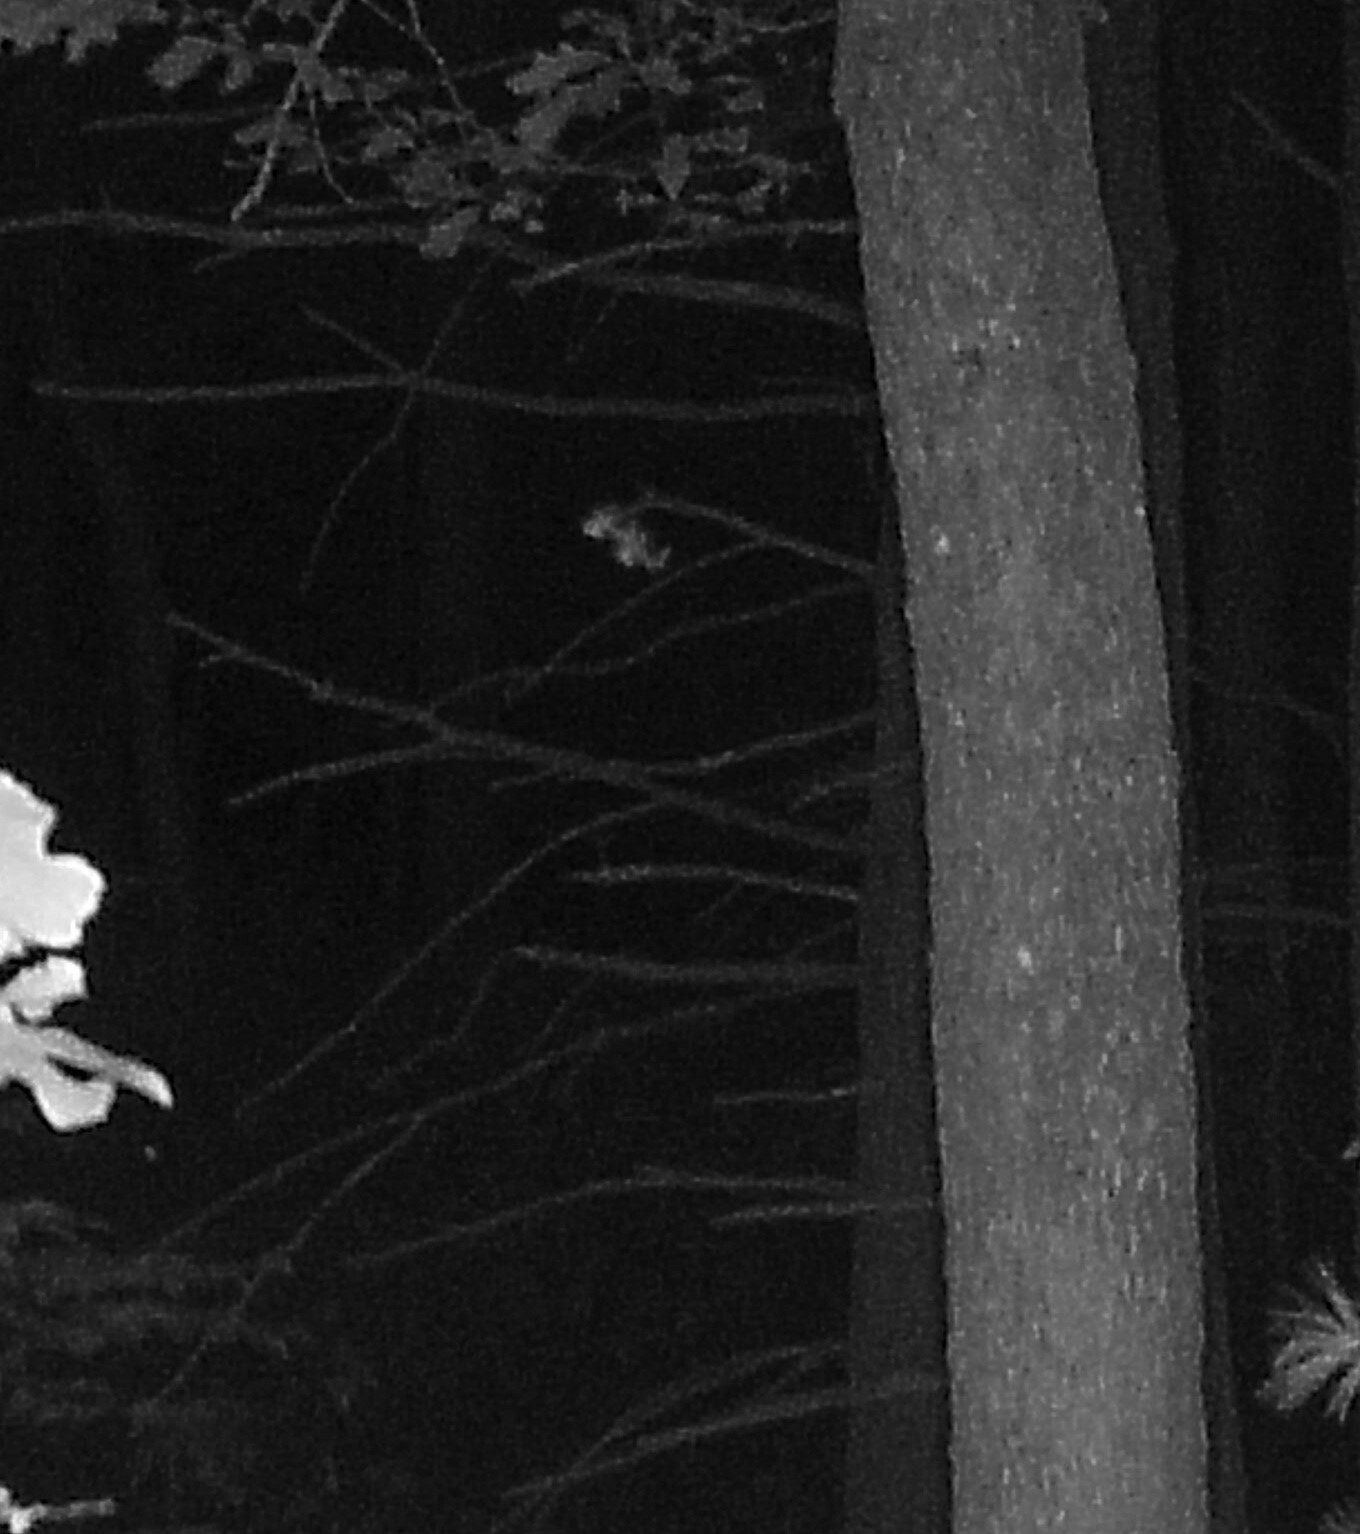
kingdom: Animalia
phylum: Chordata
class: Mammalia
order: Artiodactyla
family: Cervidae
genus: Odocoileus
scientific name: Odocoileus virginianus
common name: White-tailed deer
